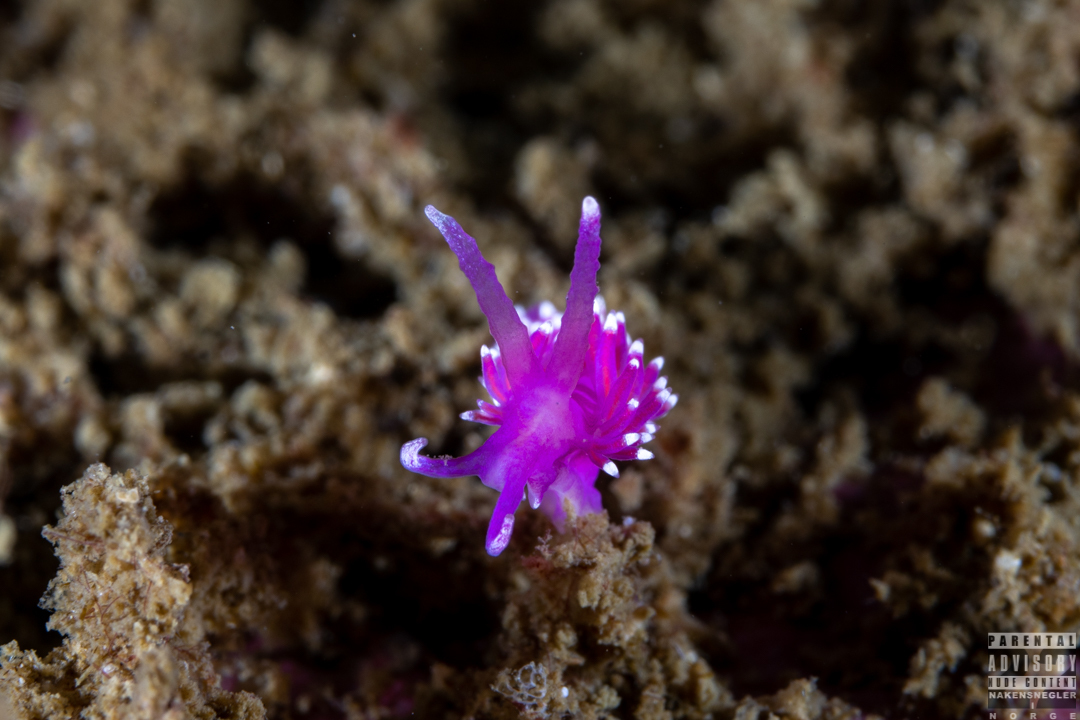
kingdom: Animalia
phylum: Mollusca
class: Gastropoda
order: Nudibranchia
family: Flabellinidae
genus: Edmundsella
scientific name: Edmundsella pedata
